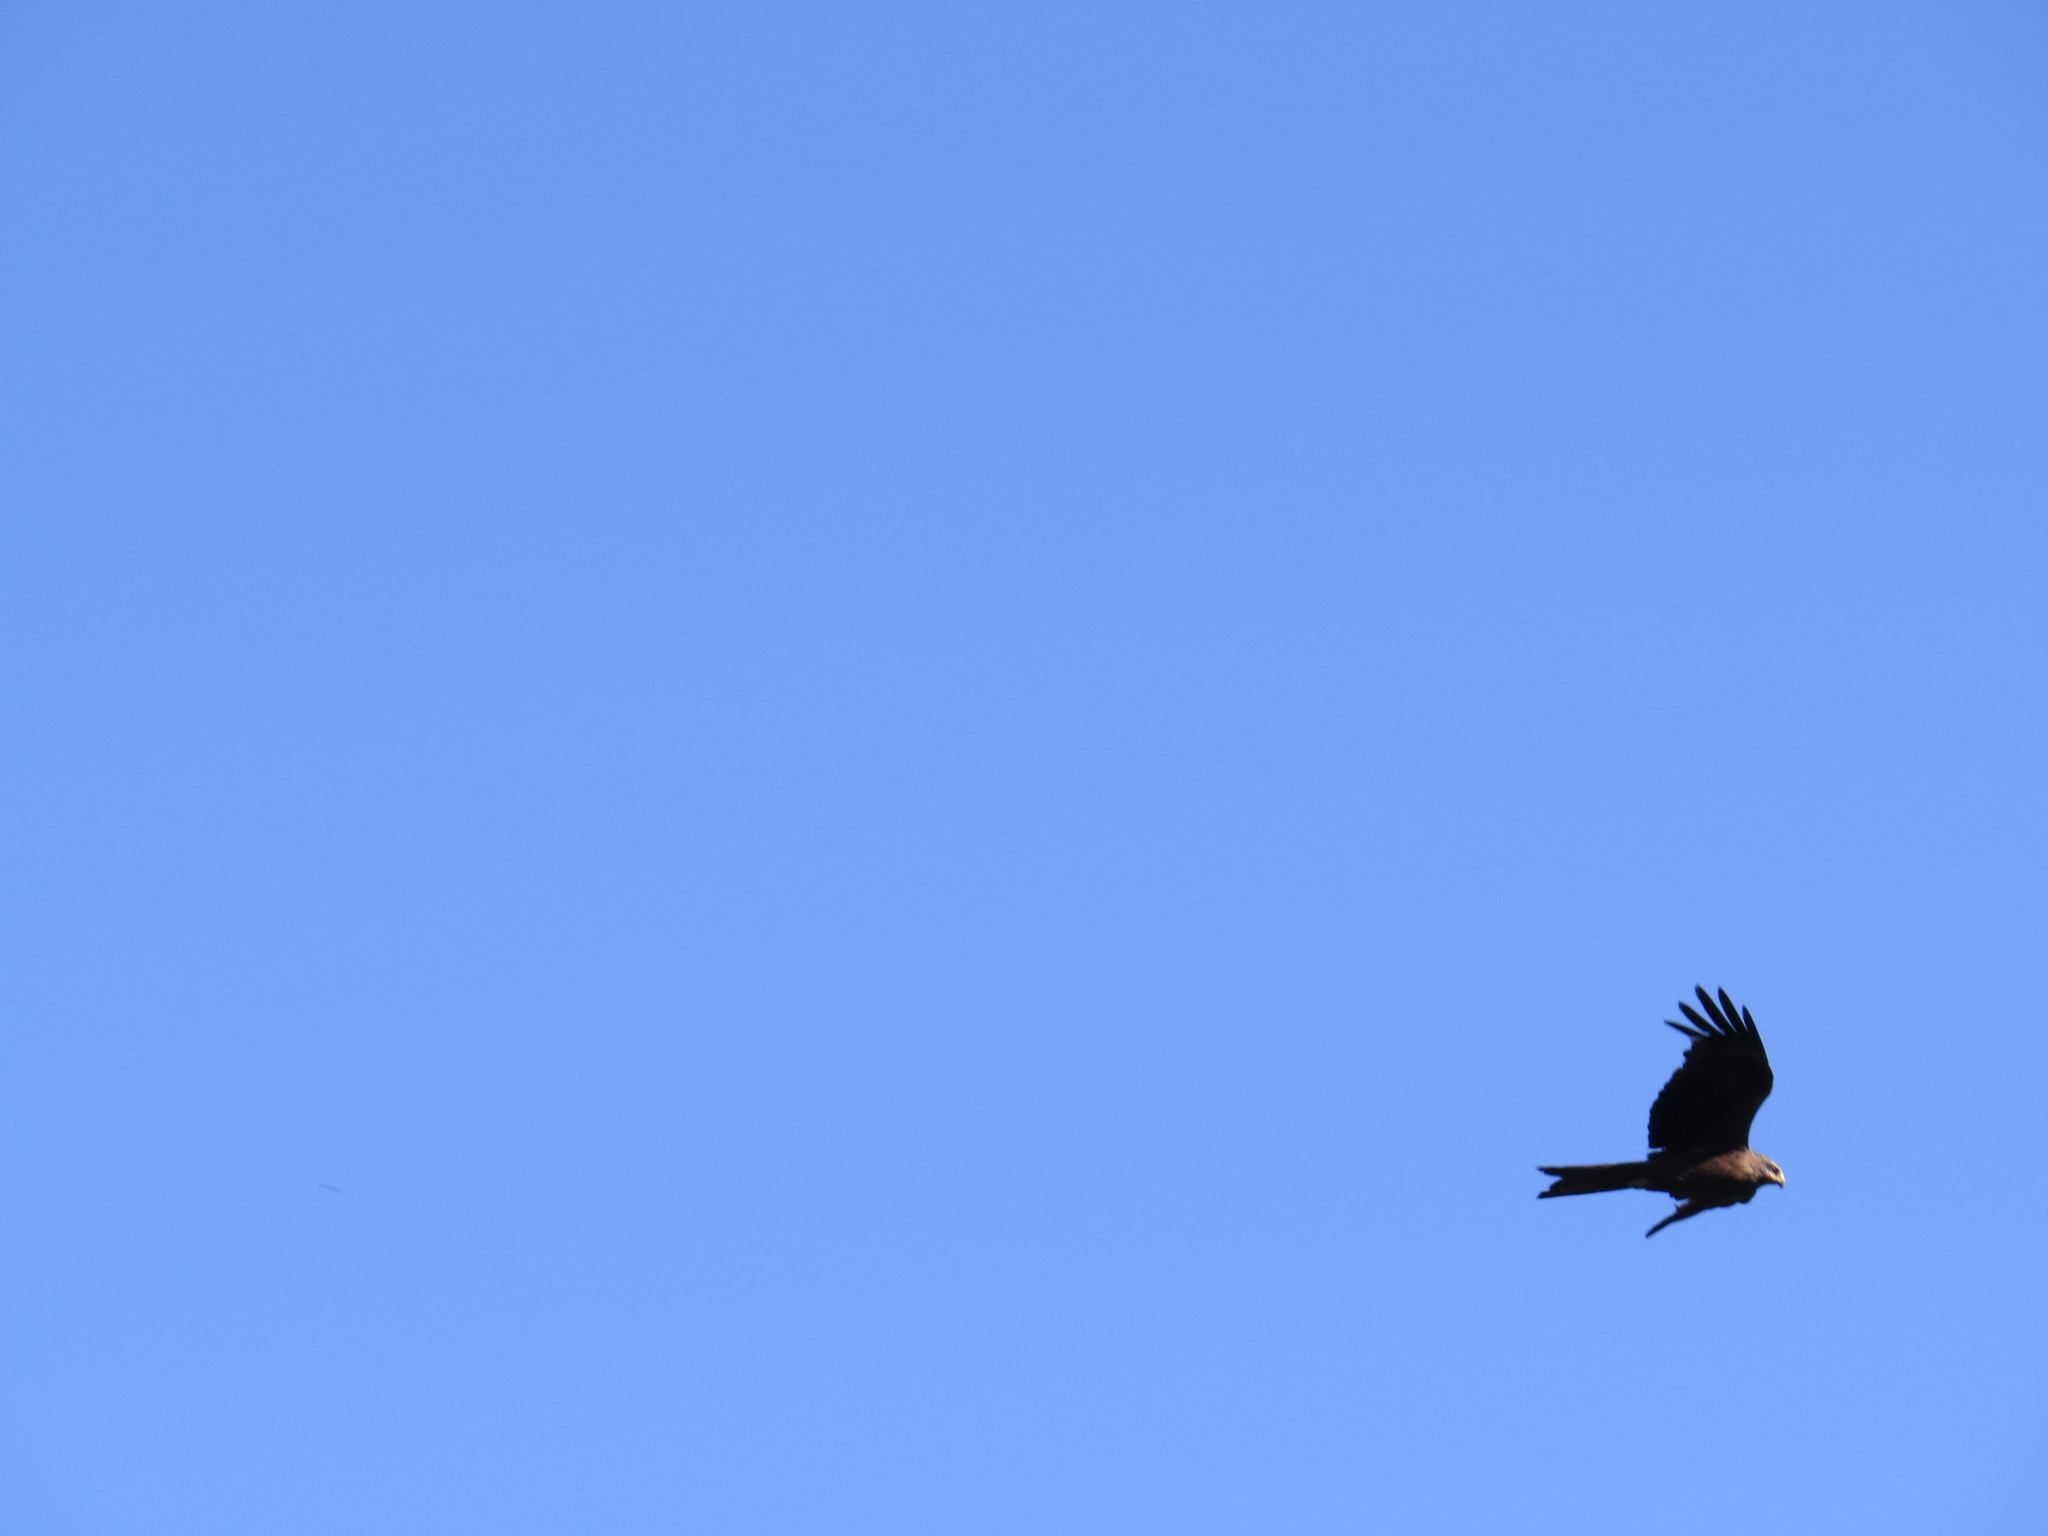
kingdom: Animalia
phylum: Chordata
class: Aves
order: Accipitriformes
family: Accipitridae
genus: Milvus
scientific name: Milvus migrans
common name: Black kite
